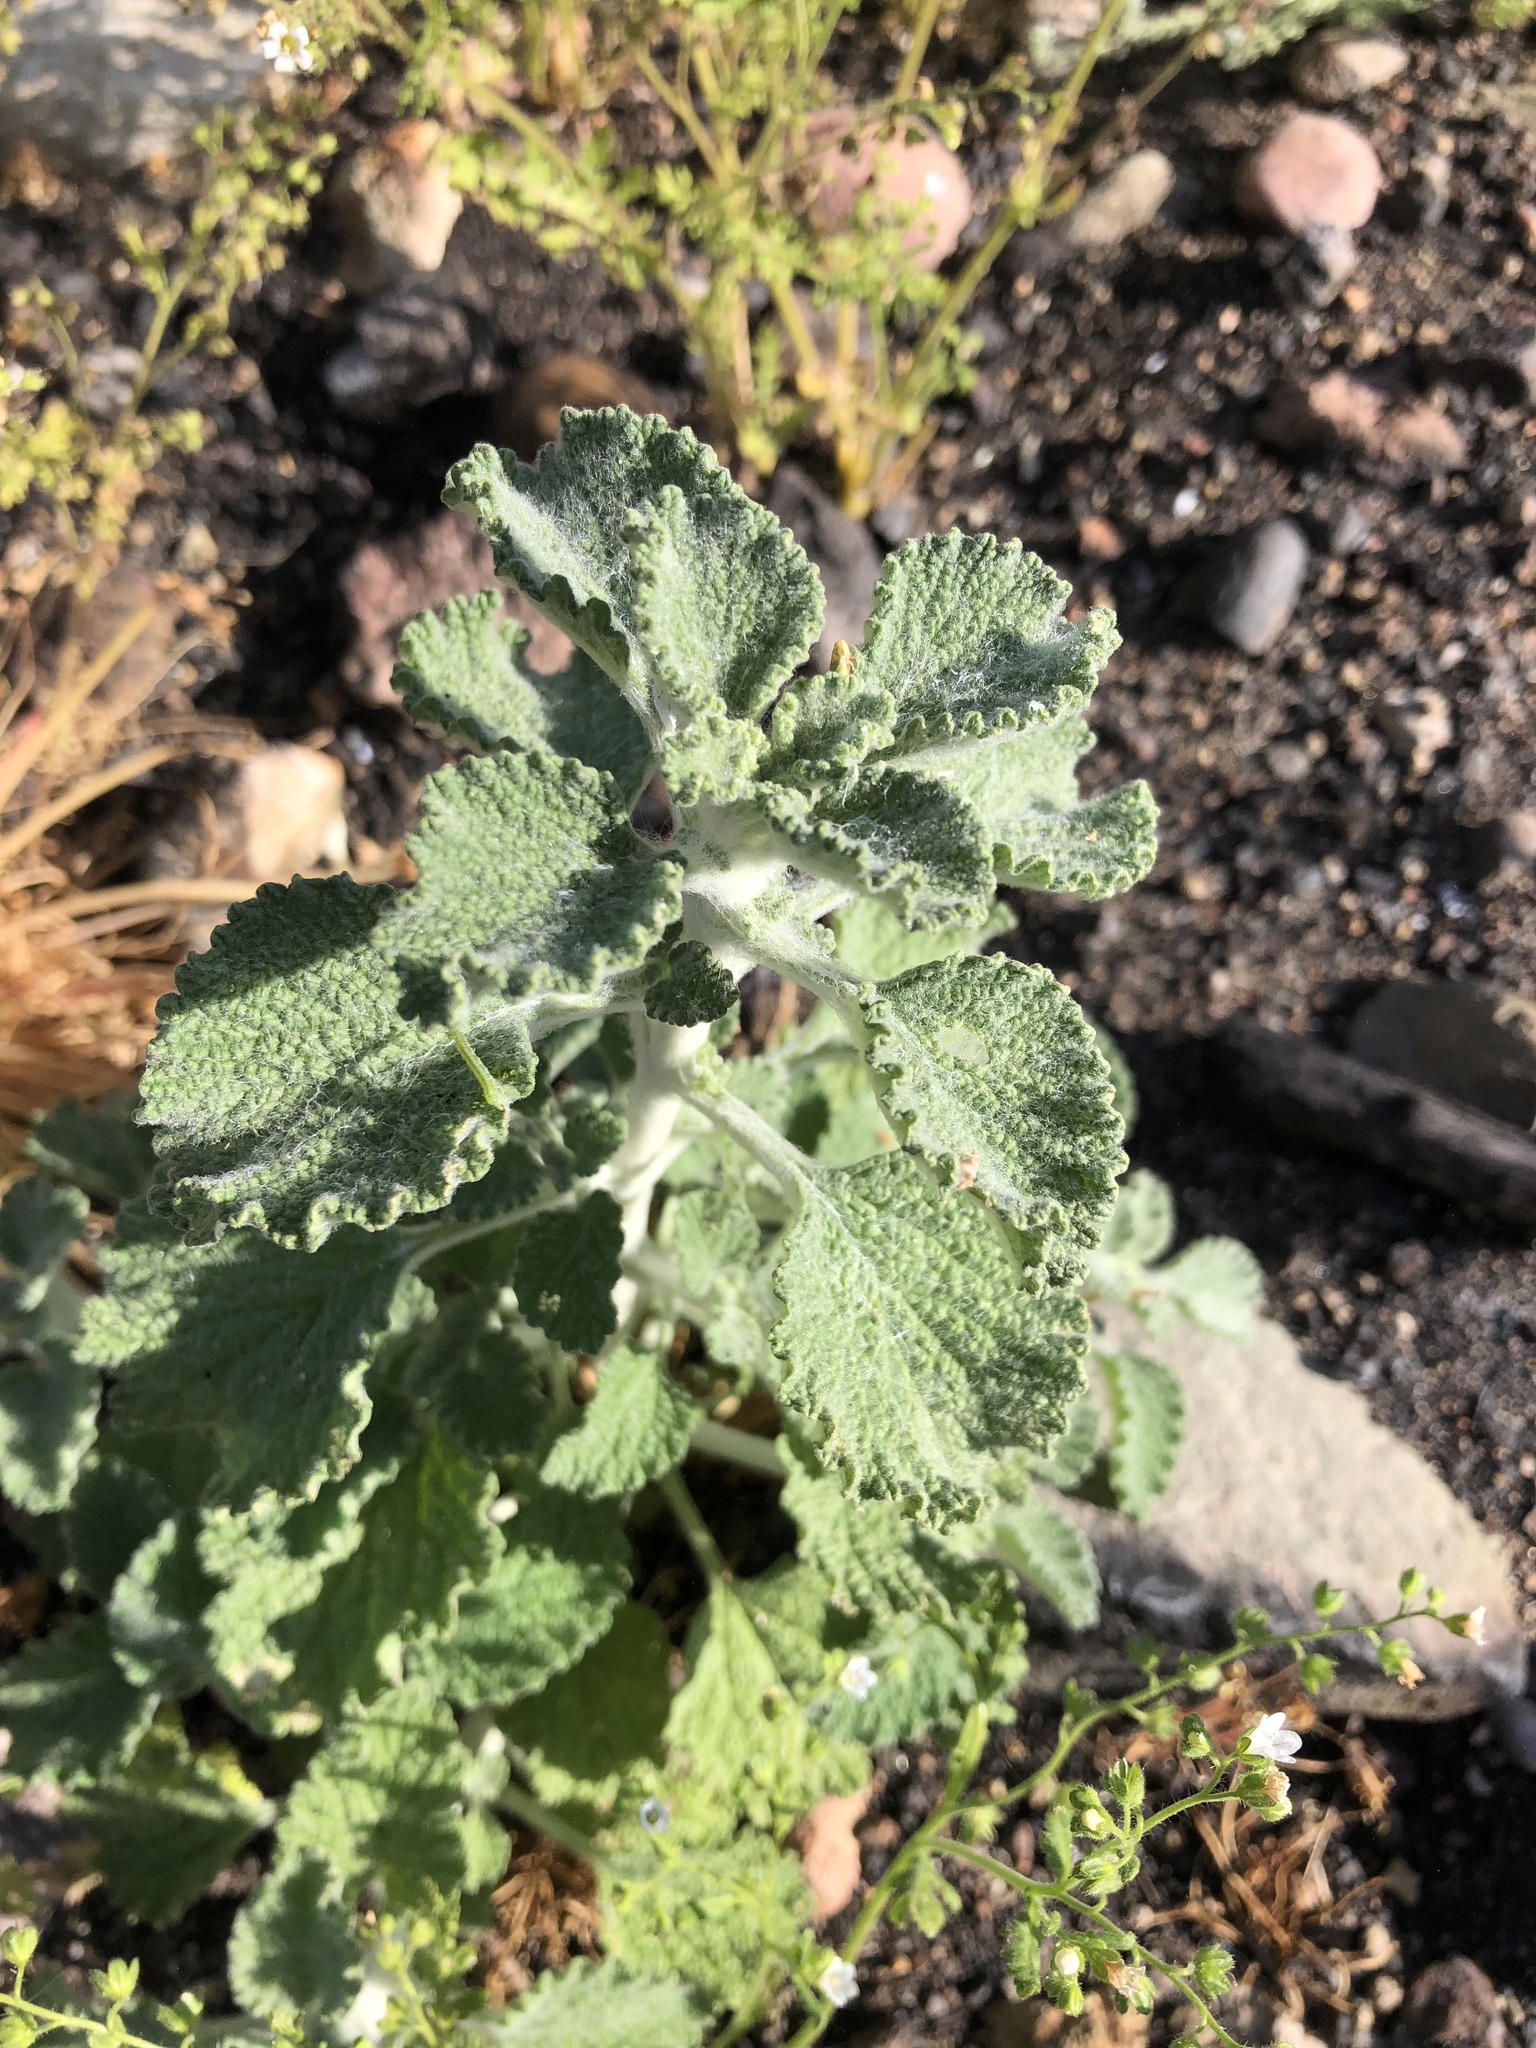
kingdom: Plantae
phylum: Tracheophyta
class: Magnoliopsida
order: Lamiales
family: Lamiaceae
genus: Marrubium
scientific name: Marrubium vulgare
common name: Horehound
